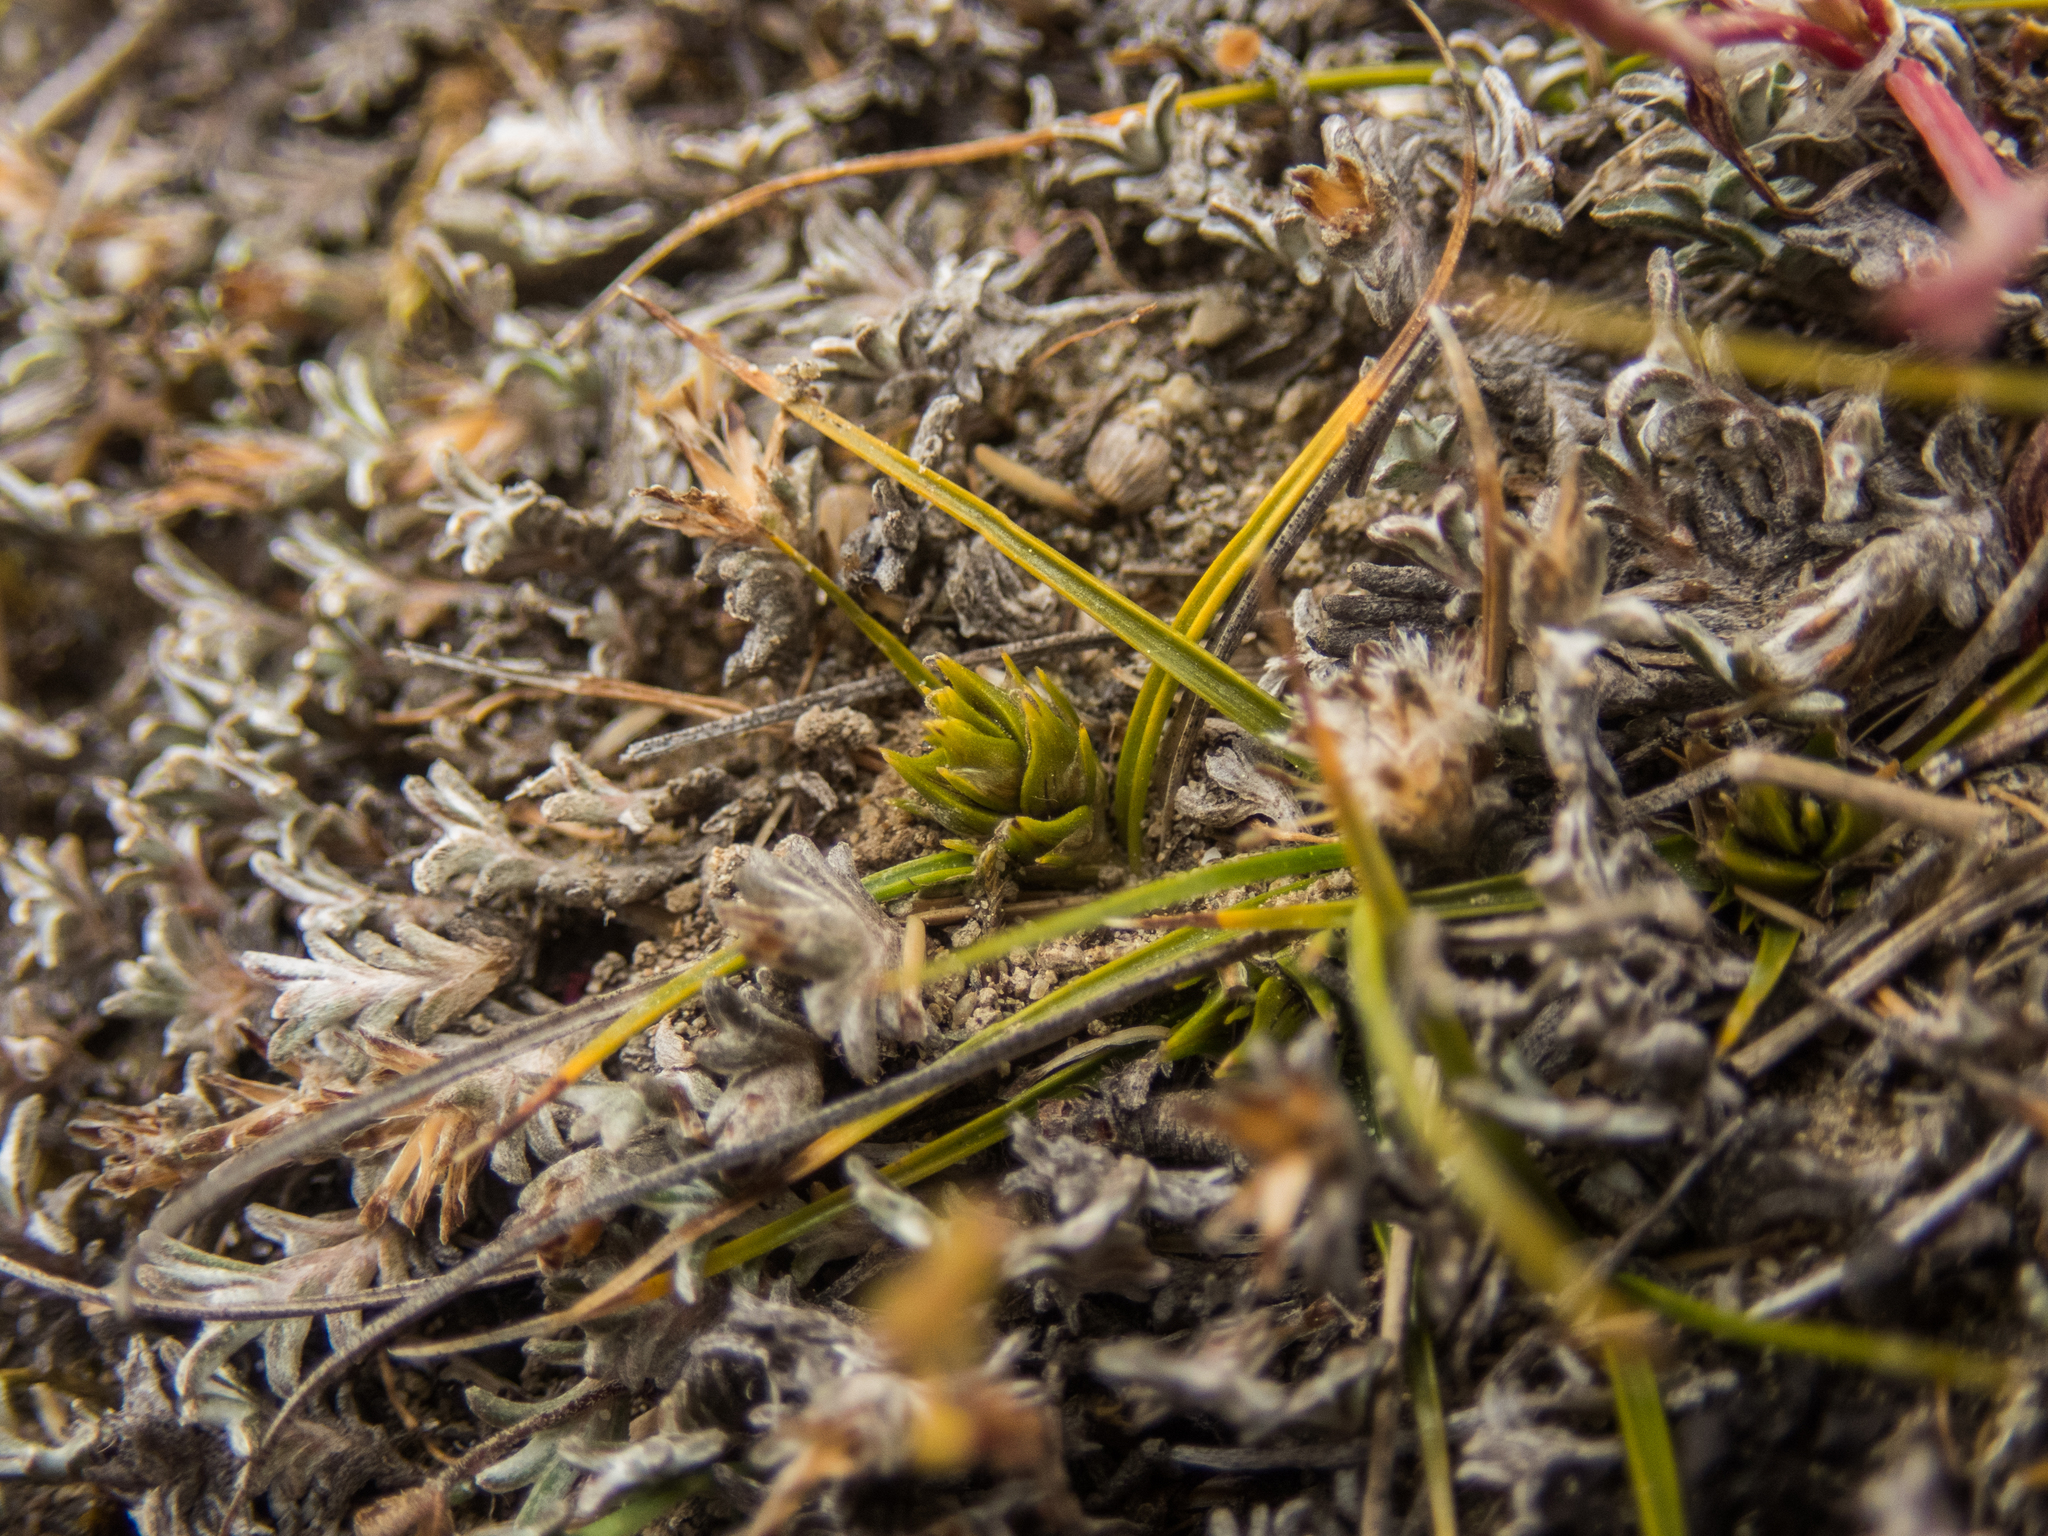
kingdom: Plantae
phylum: Tracheophyta
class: Liliopsida
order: Poales
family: Cyperaceae
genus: Carex
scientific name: Carex breviculmis
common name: Asian shortstem sedge
